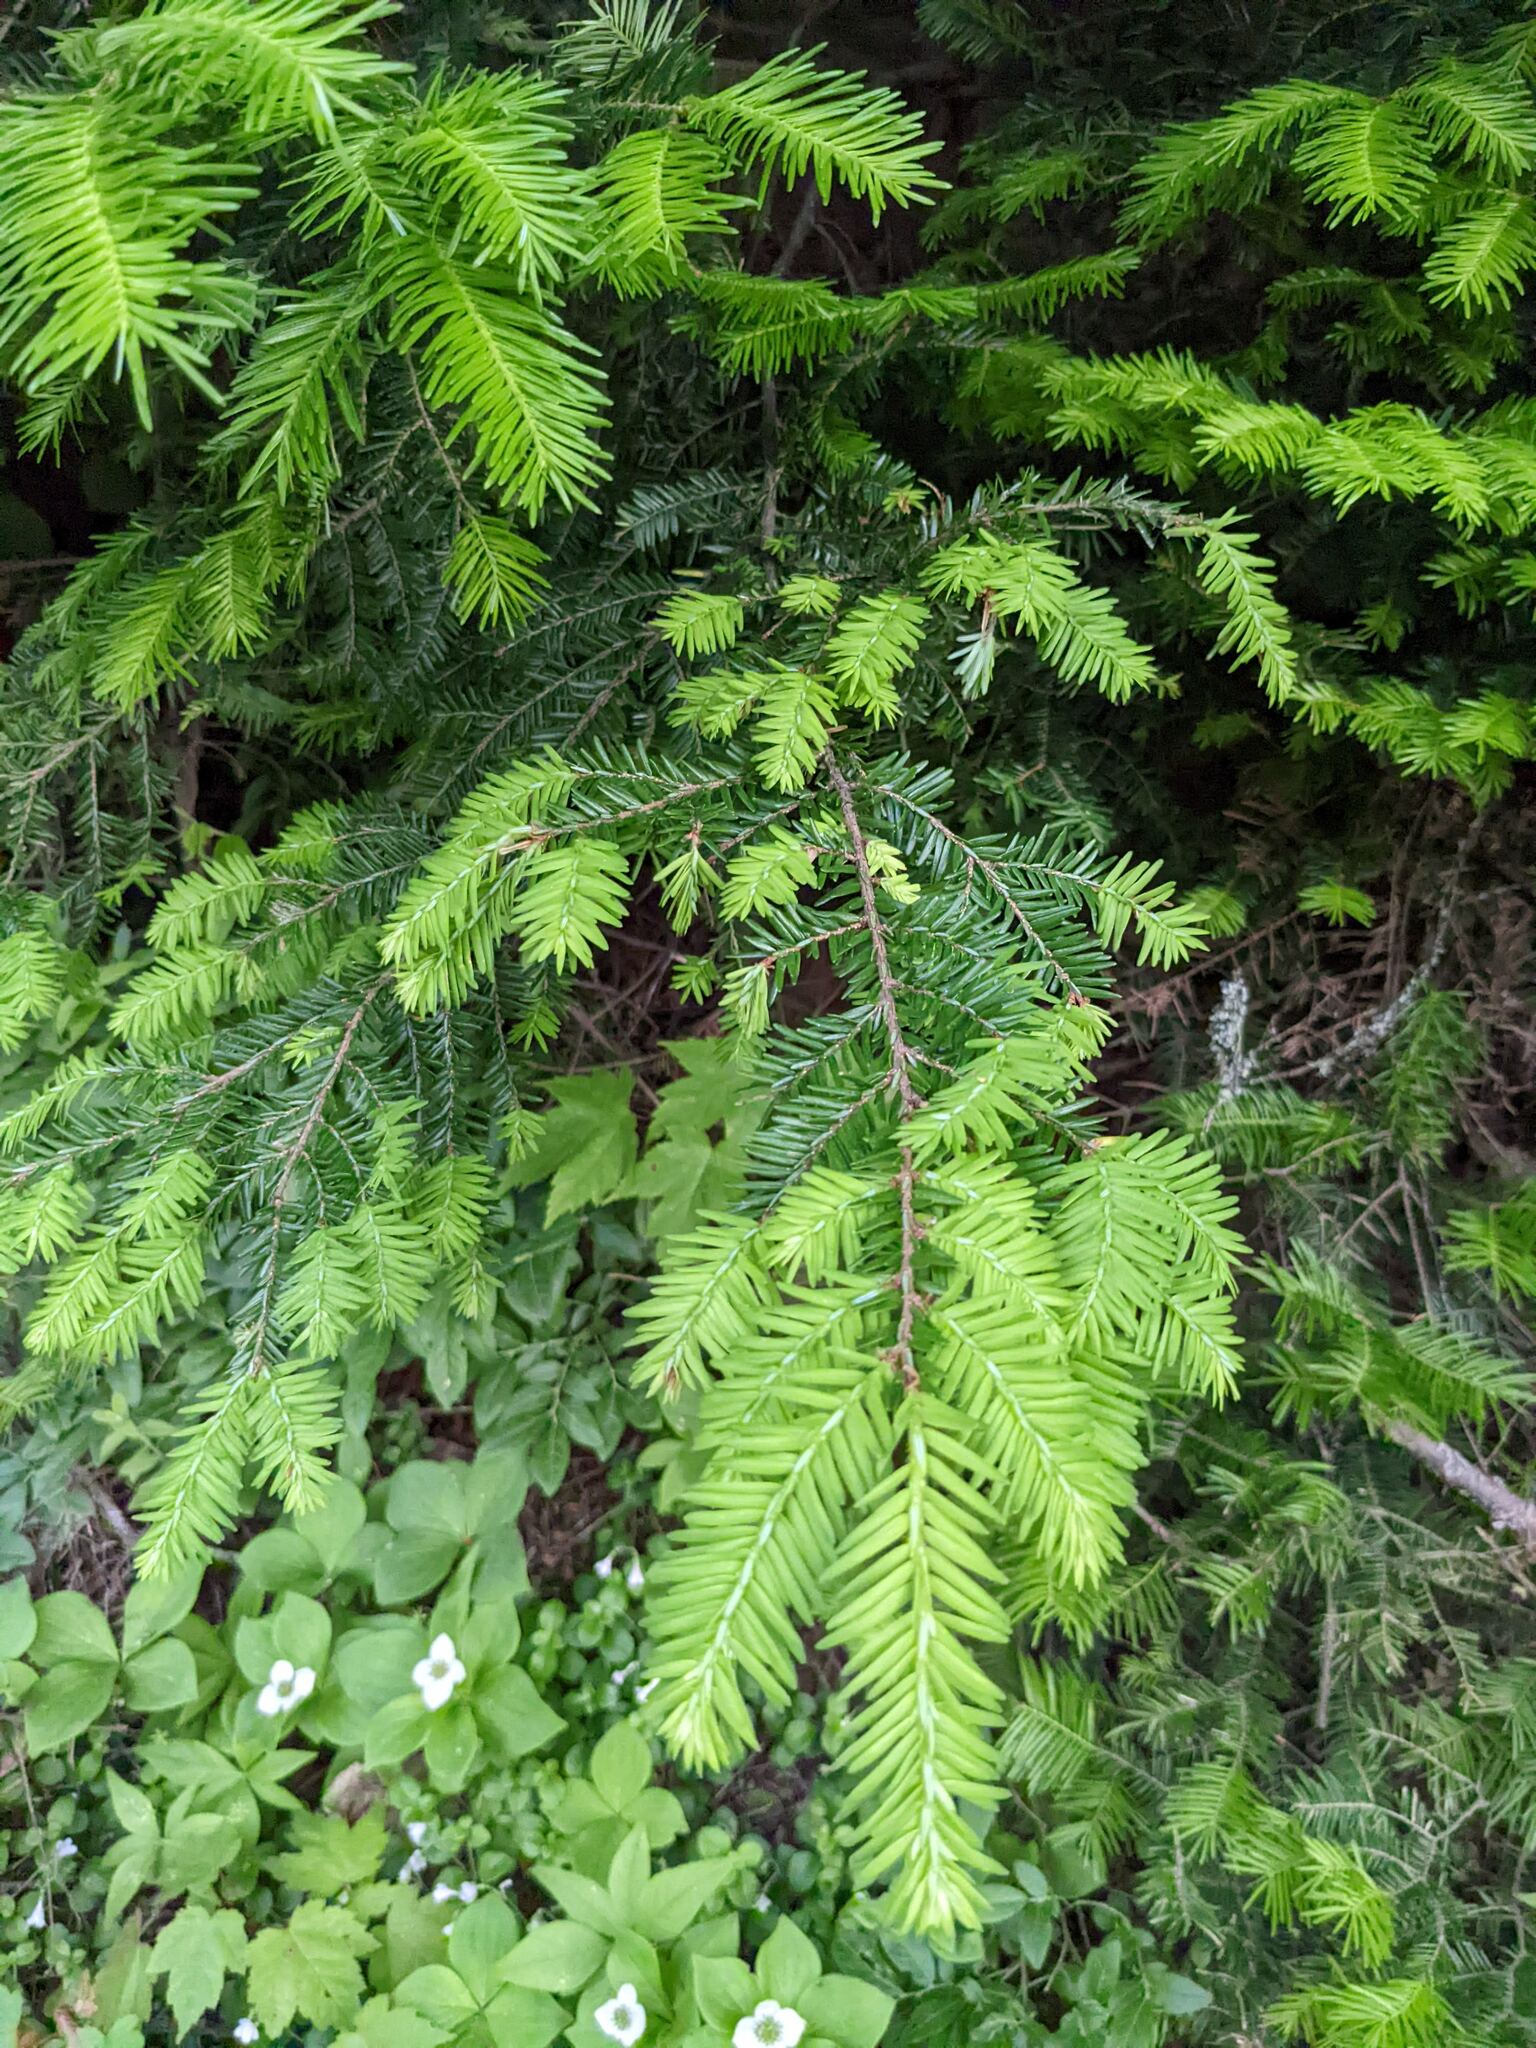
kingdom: Plantae
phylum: Tracheophyta
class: Pinopsida
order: Pinales
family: Pinaceae
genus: Tsuga
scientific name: Tsuga canadensis
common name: Eastern hemlock
